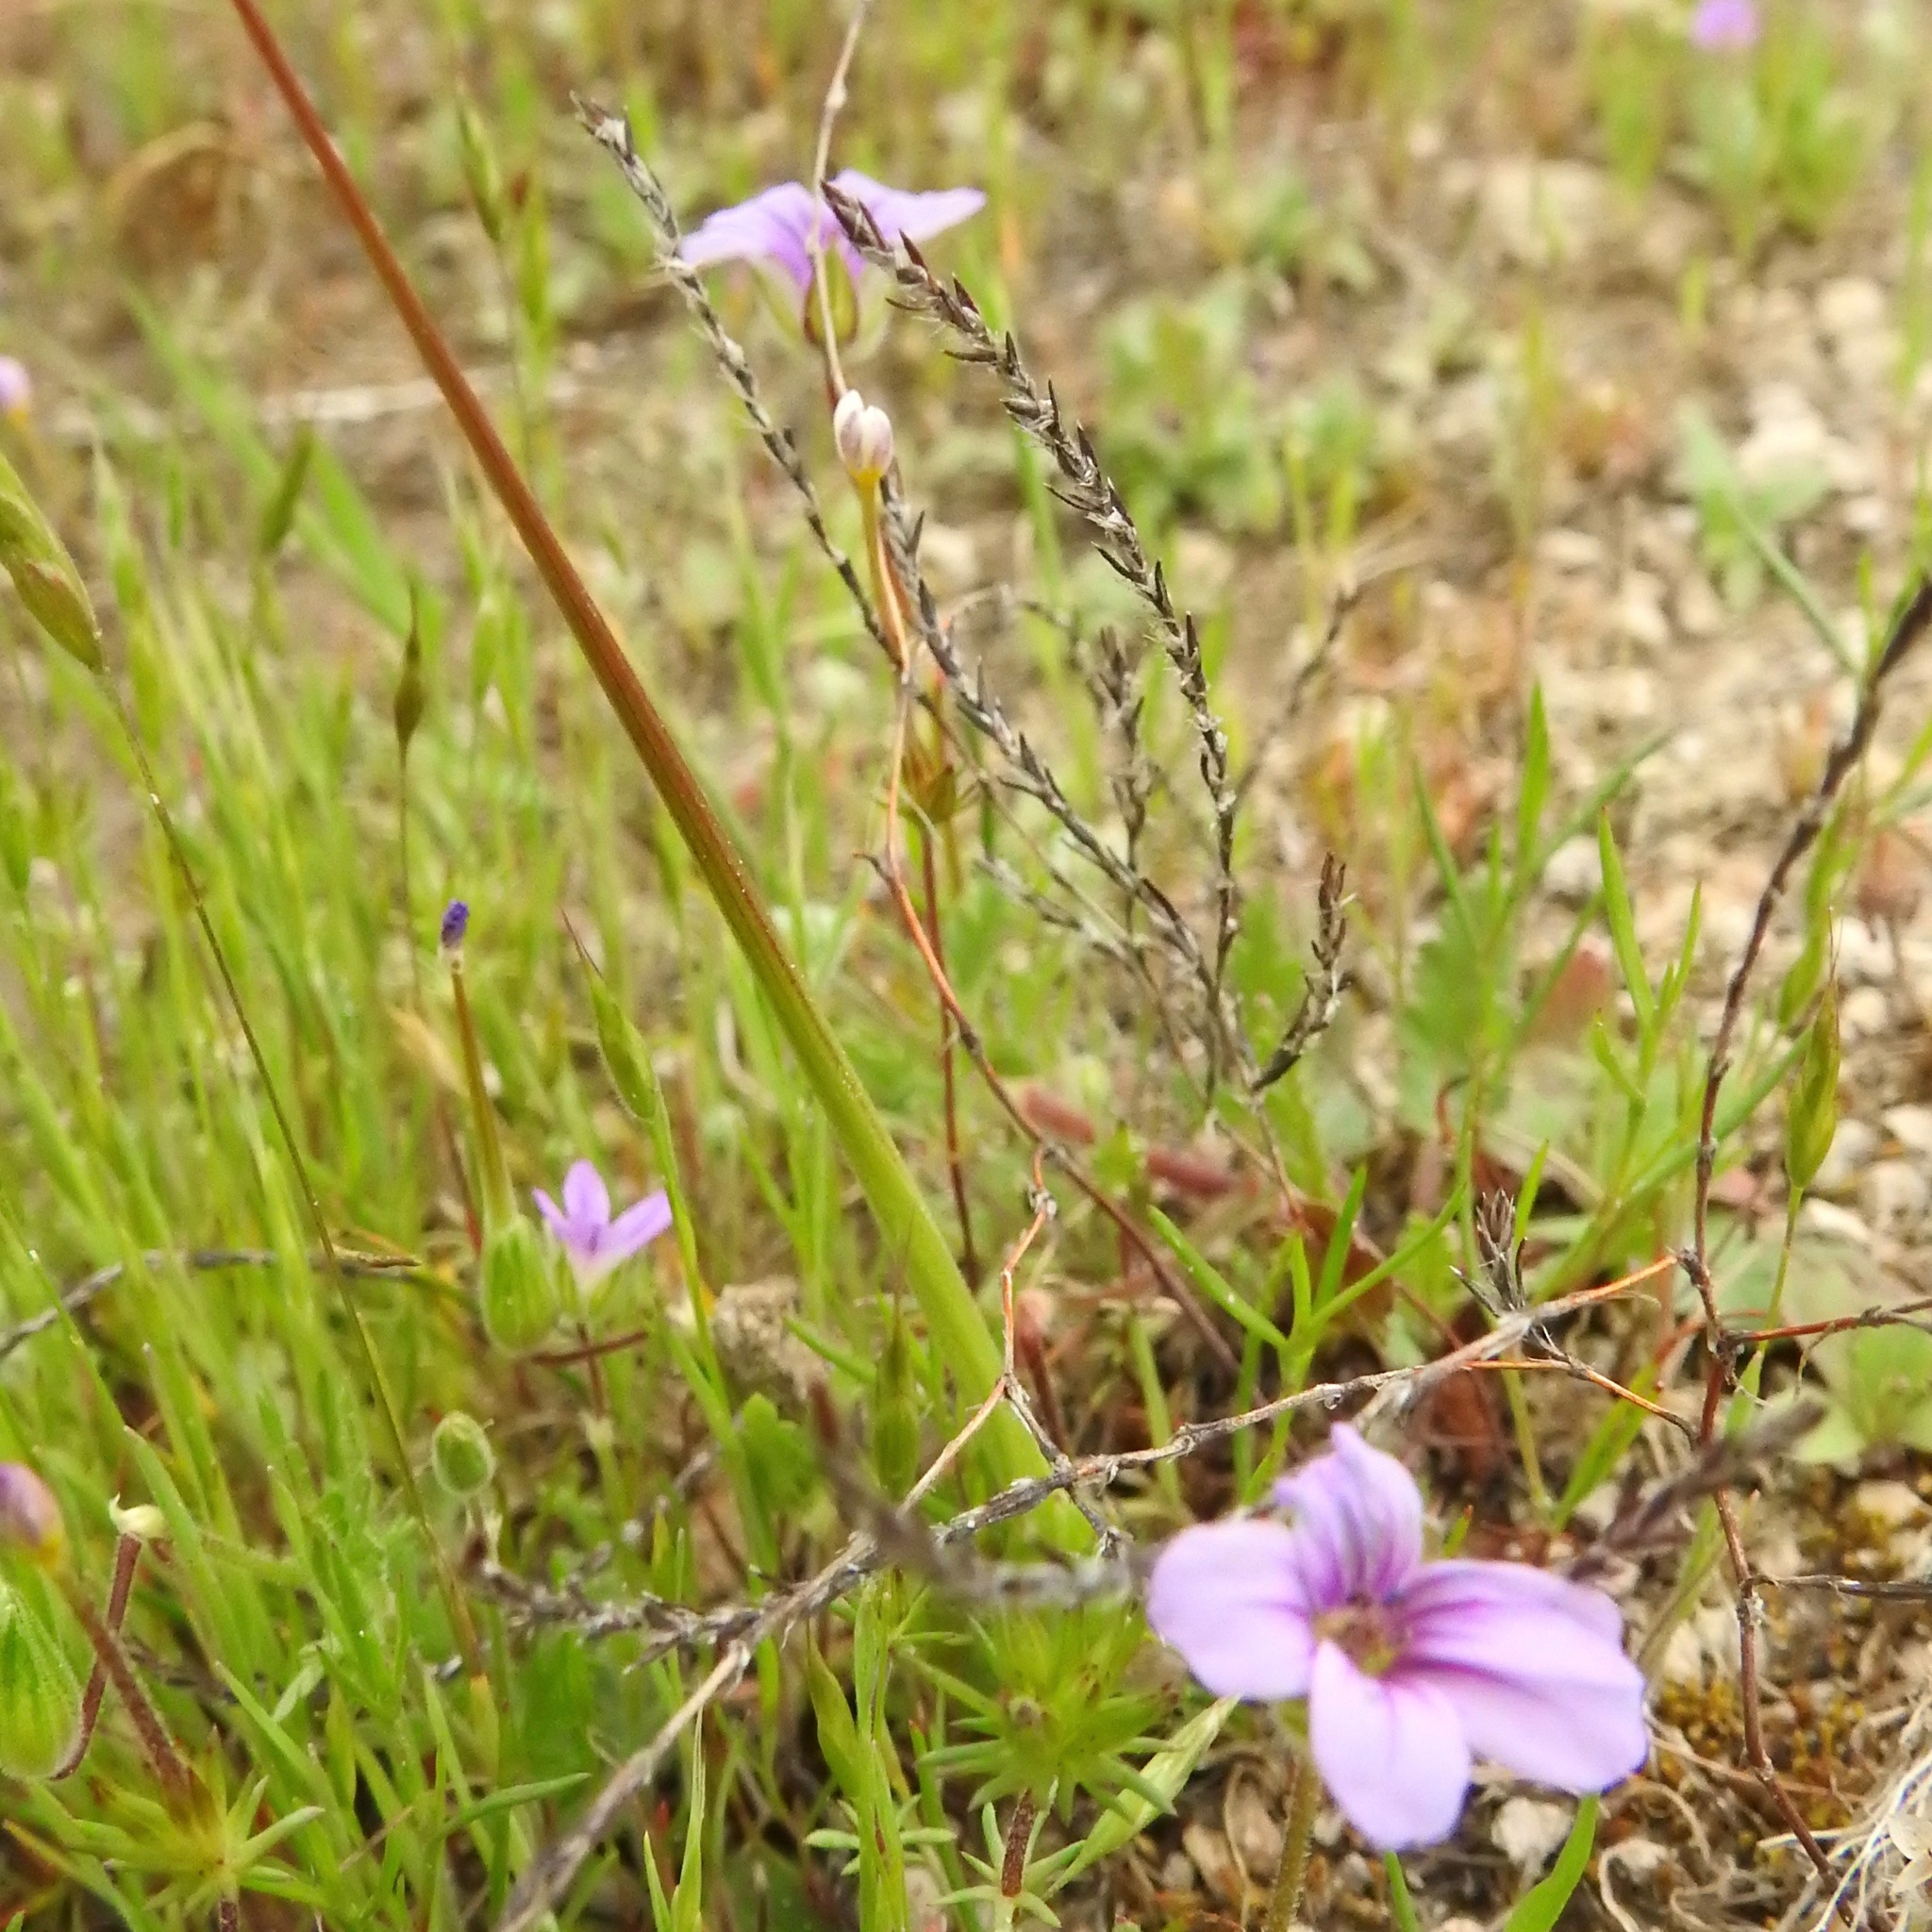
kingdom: Plantae
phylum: Tracheophyta
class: Magnoliopsida
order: Geraniales
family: Geraniaceae
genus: Erodium
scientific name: Erodium botrys
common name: Mediterranean stork's-bill
